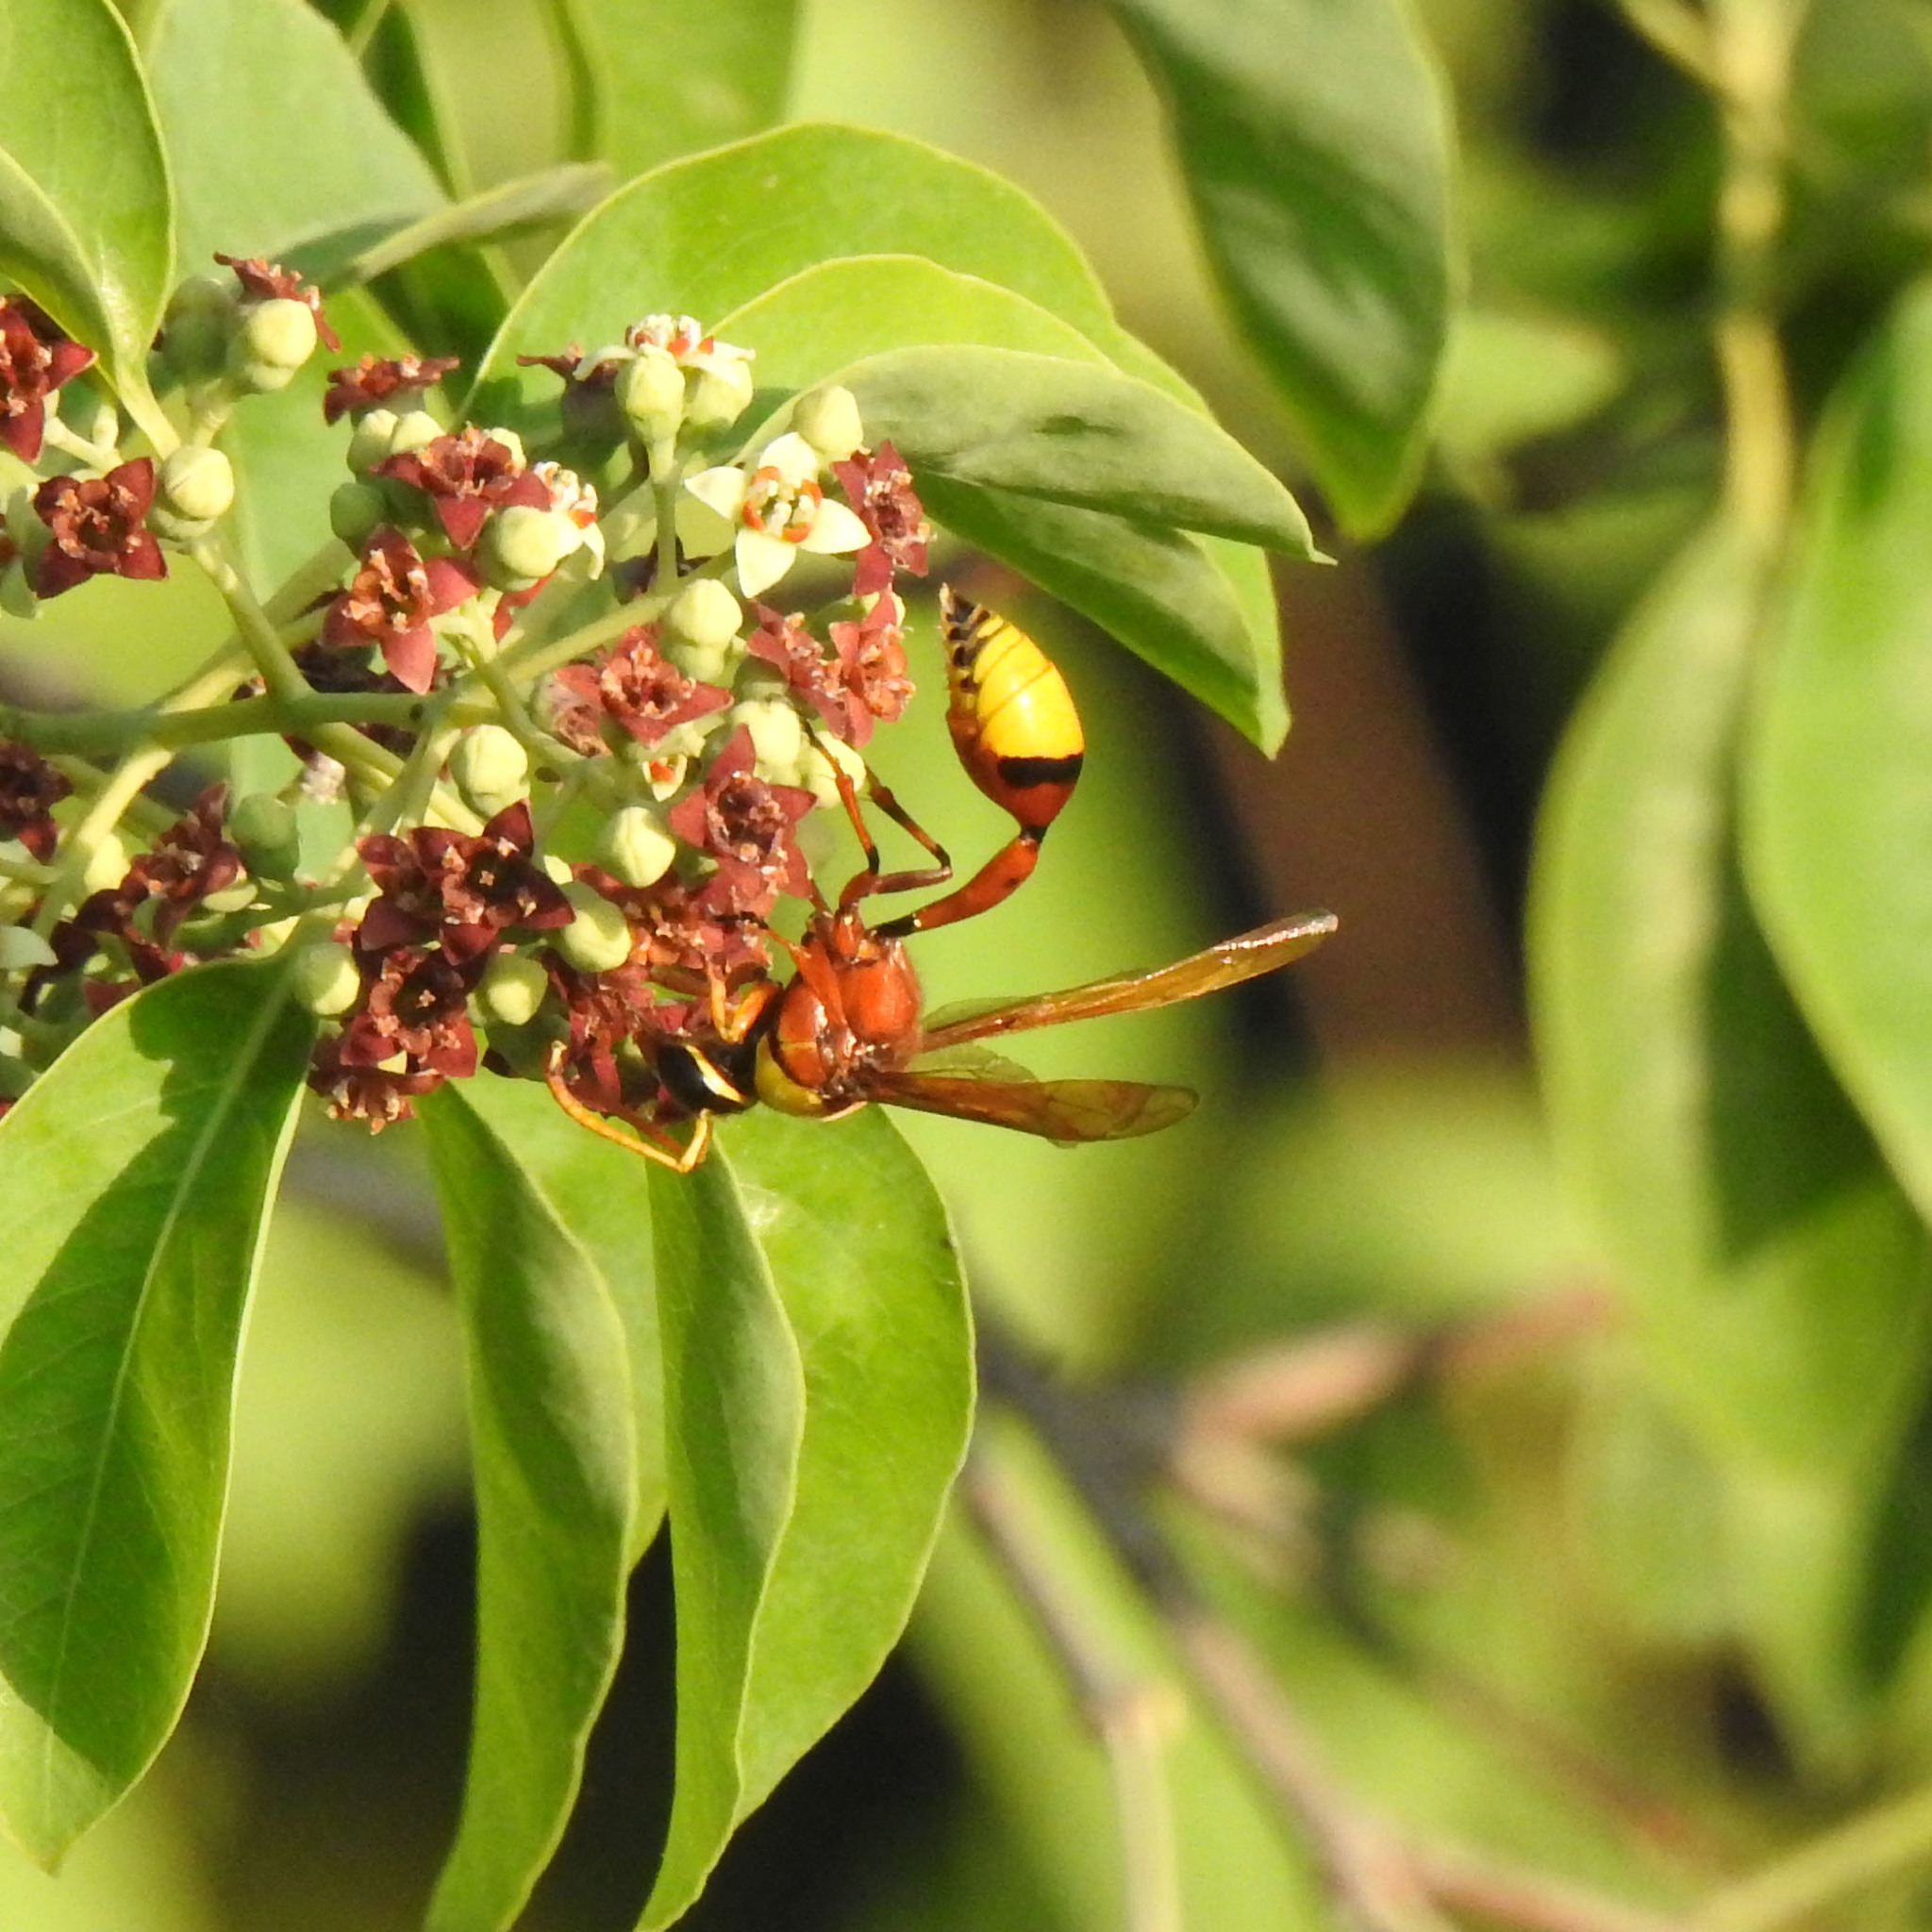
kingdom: Animalia
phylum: Arthropoda
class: Insecta
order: Hymenoptera
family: Eumenidae
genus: Delta
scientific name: Delta pyriforme
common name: Wasp
